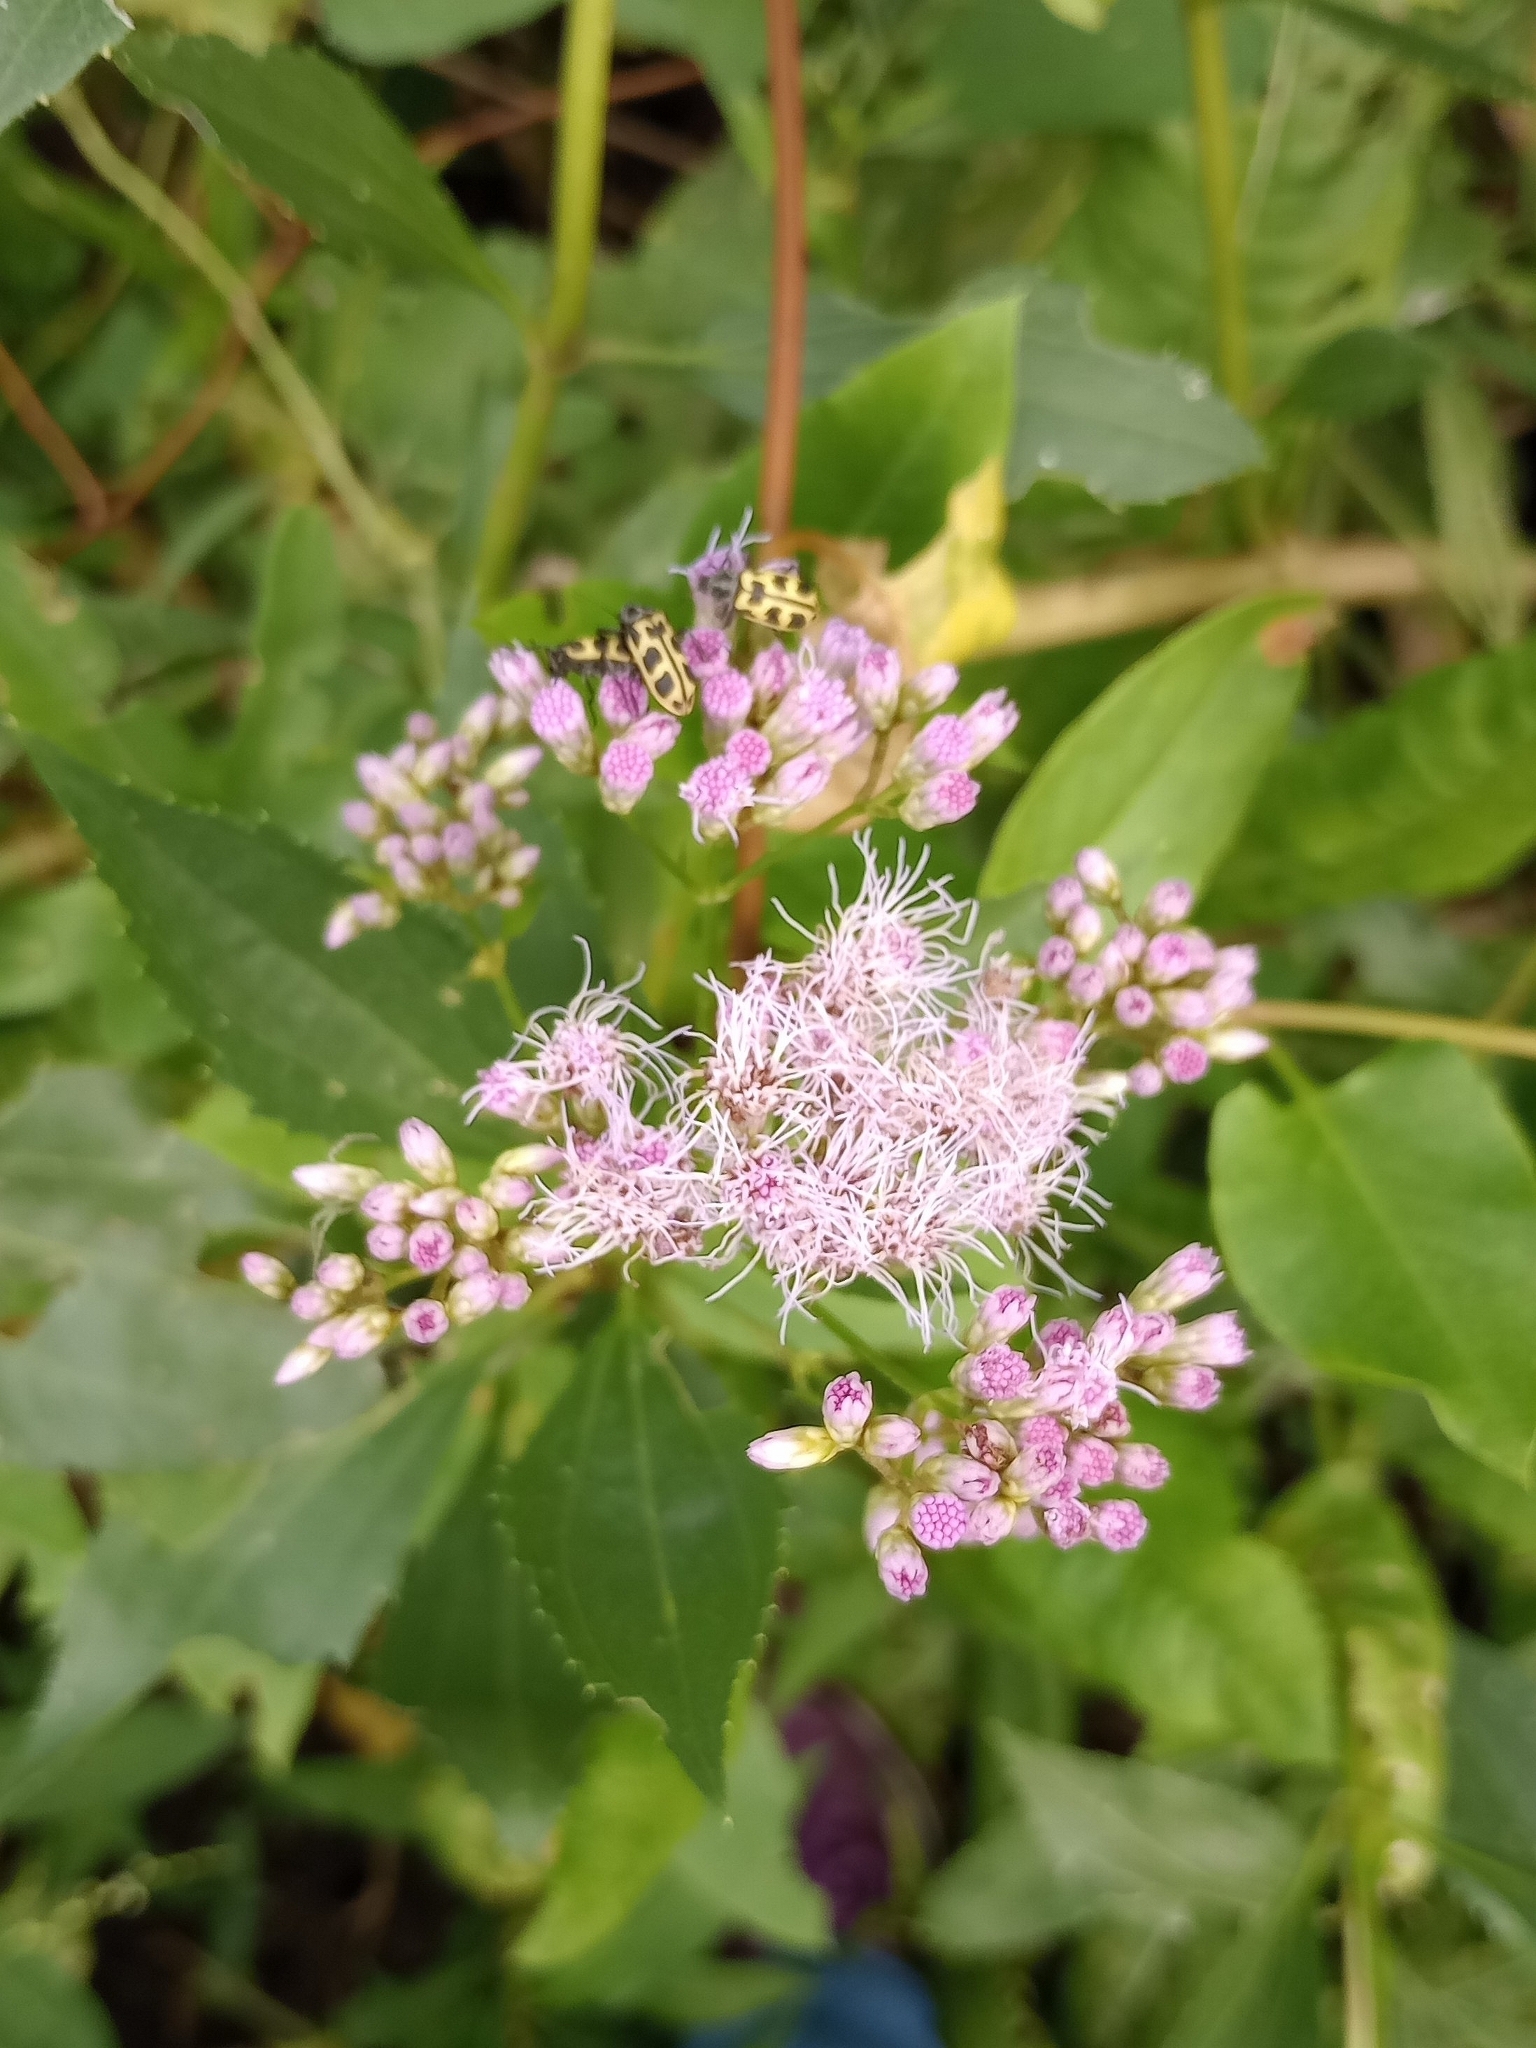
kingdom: Plantae
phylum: Tracheophyta
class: Magnoliopsida
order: Asterales
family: Asteraceae
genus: Chromolaena
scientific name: Chromolaena laevigata
